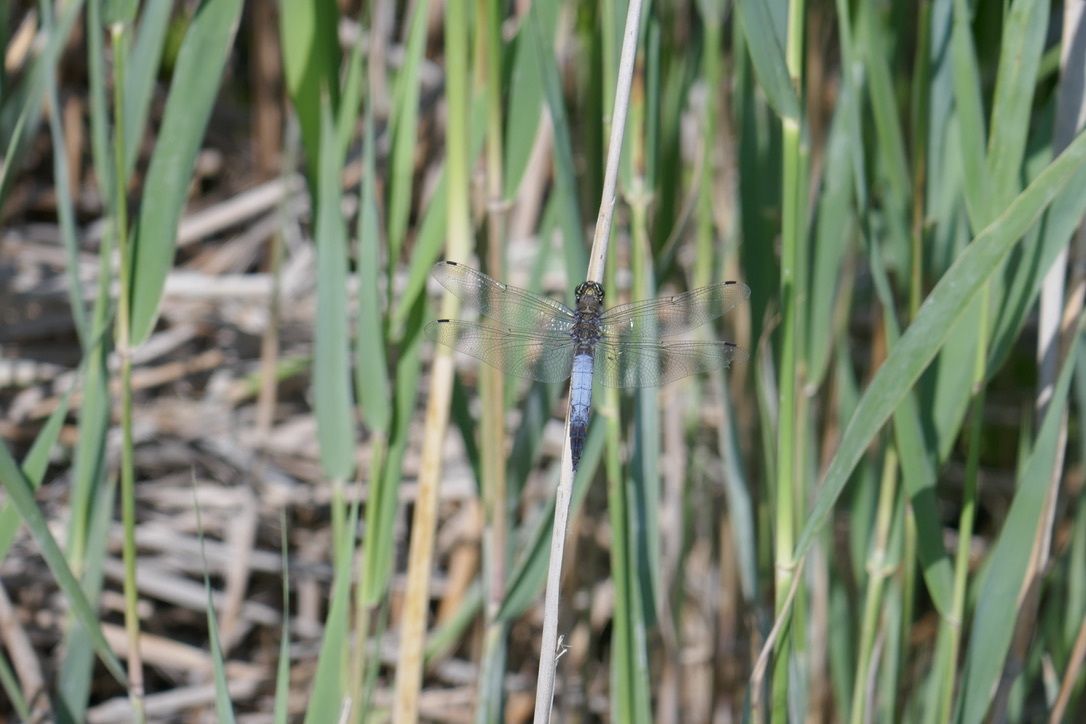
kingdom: Animalia
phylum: Arthropoda
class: Insecta
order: Odonata
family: Libellulidae
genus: Orthetrum
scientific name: Orthetrum cancellatum
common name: Black-tailed skimmer
